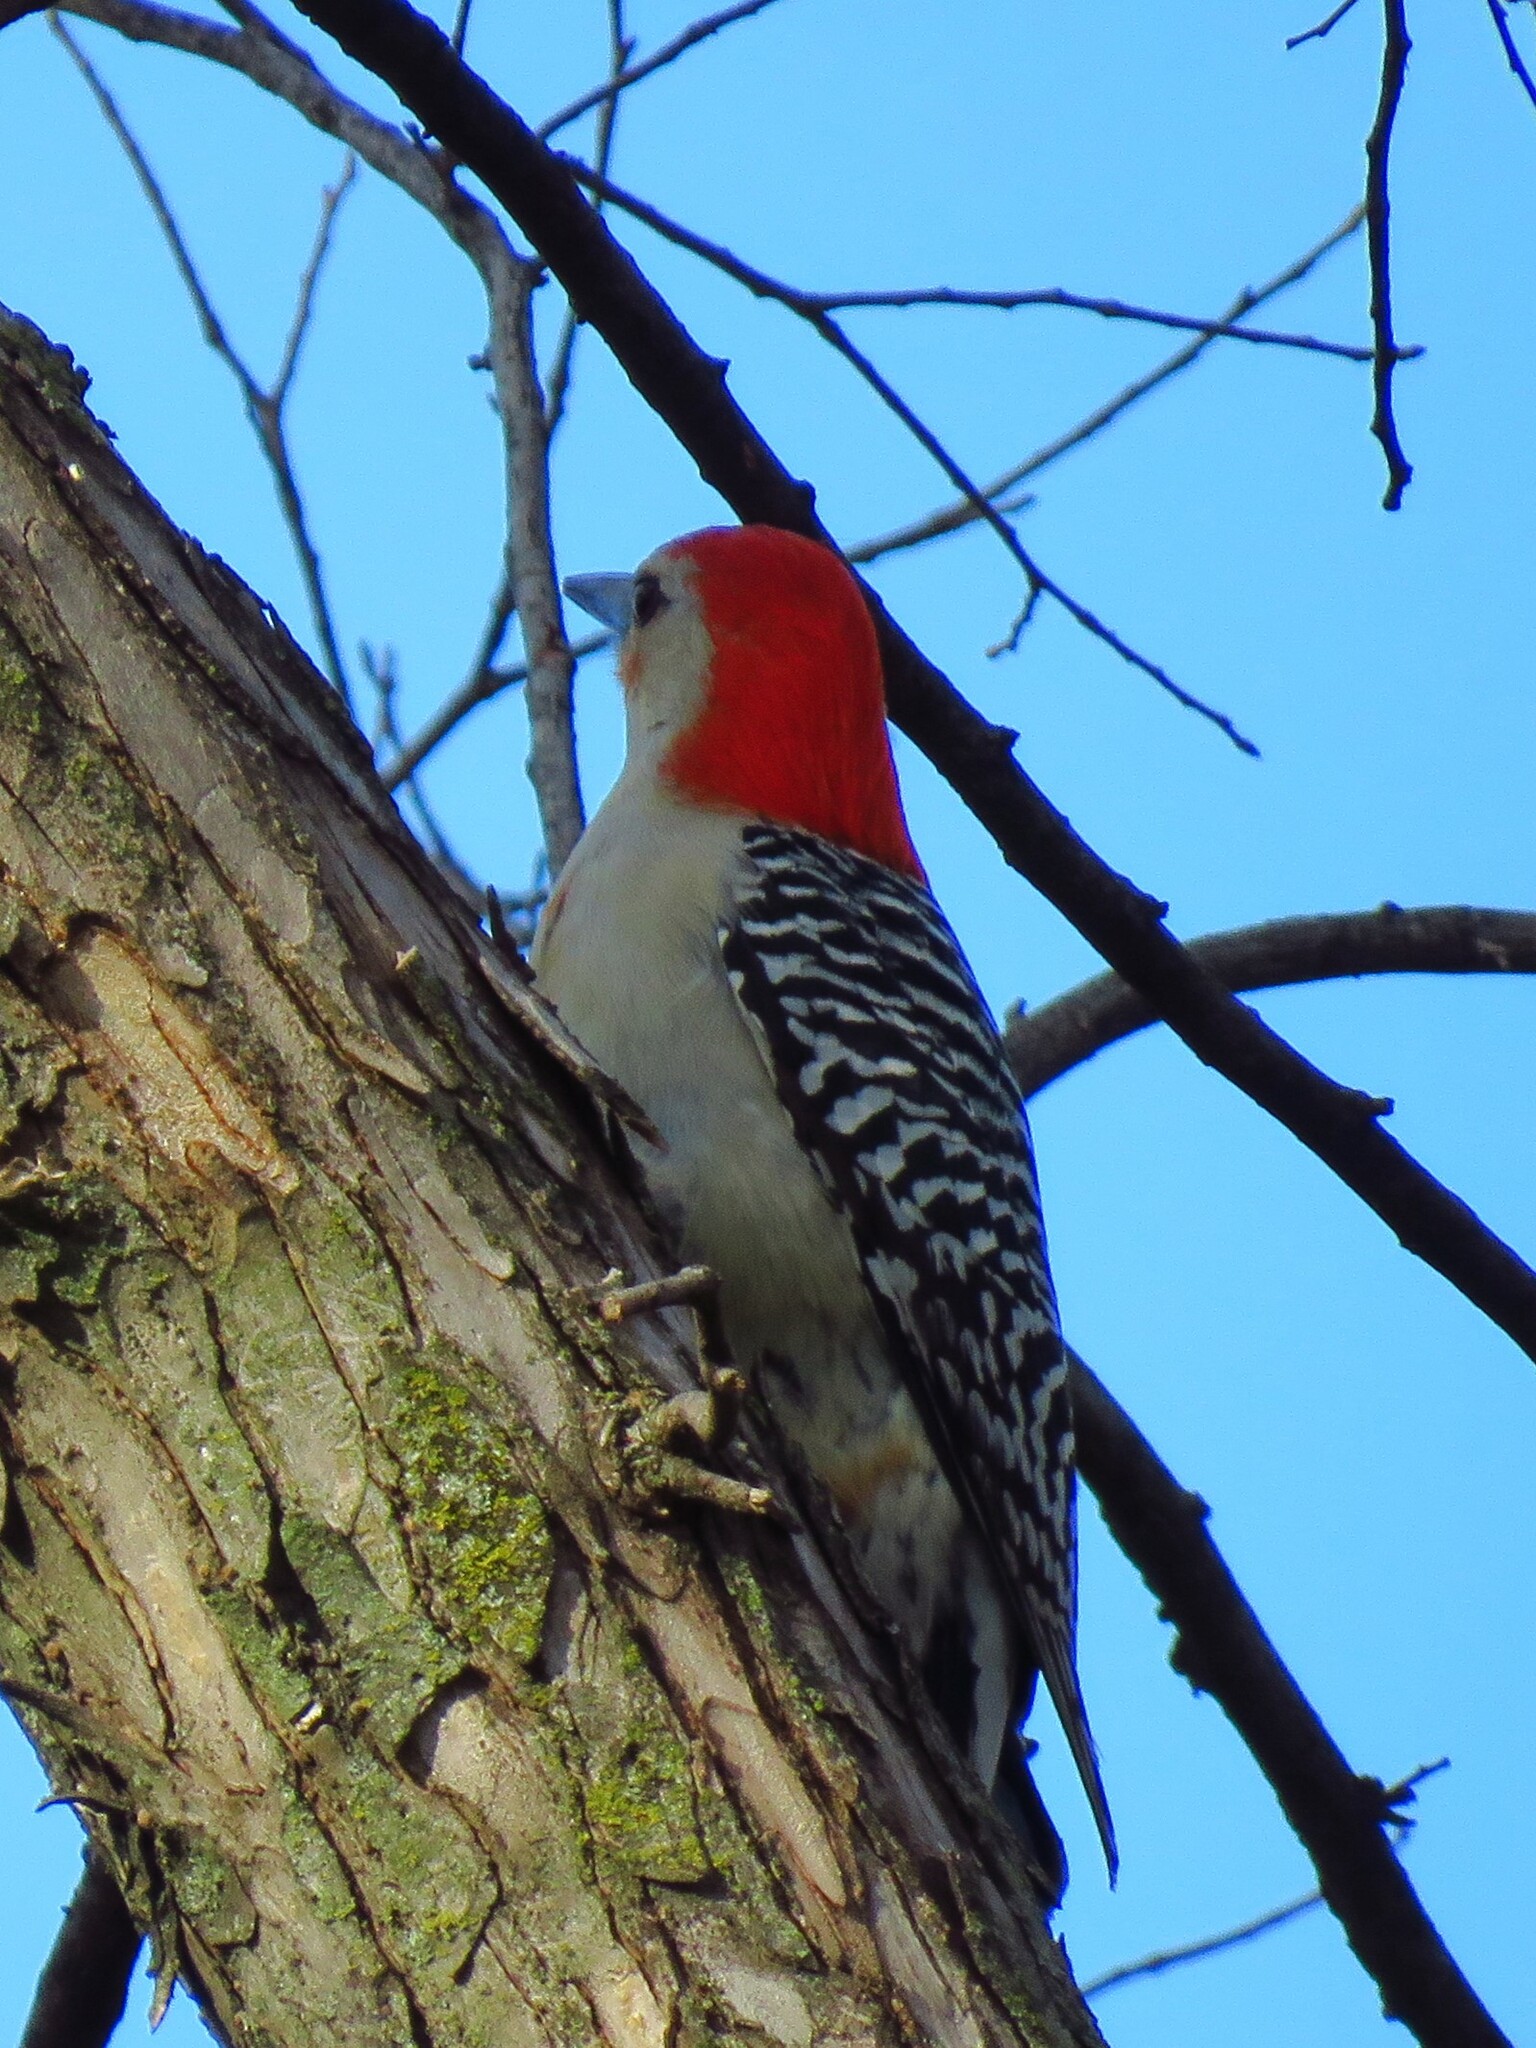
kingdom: Animalia
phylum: Chordata
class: Aves
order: Piciformes
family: Picidae
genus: Melanerpes
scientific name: Melanerpes carolinus
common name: Red-bellied woodpecker
